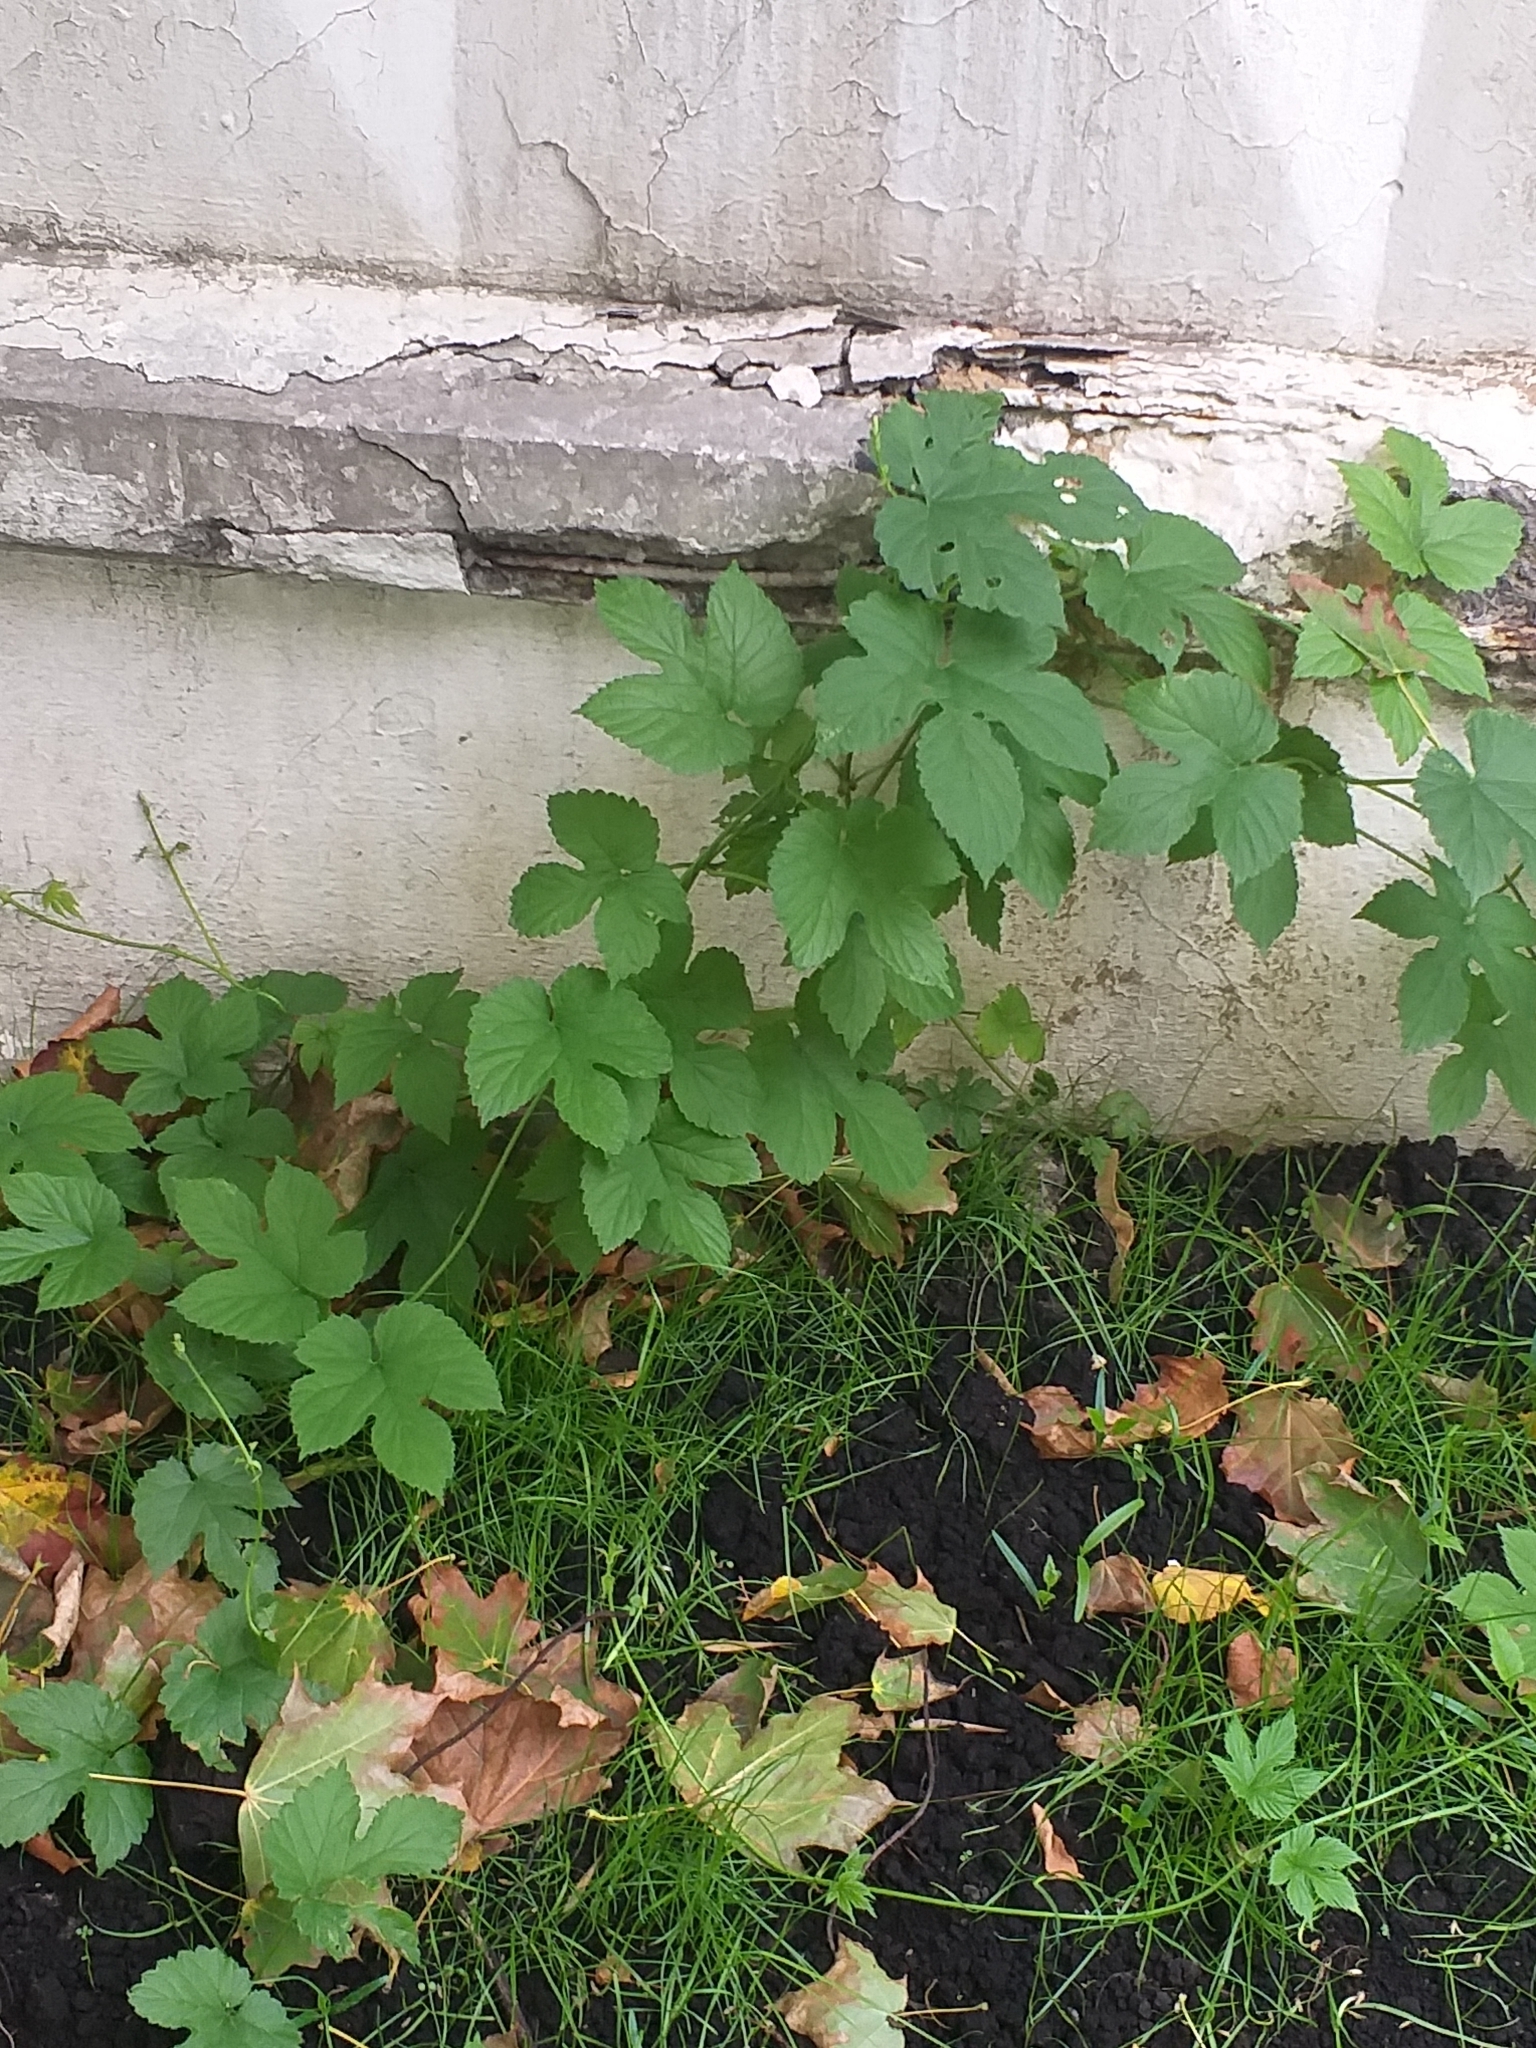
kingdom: Plantae
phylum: Tracheophyta
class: Magnoliopsida
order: Rosales
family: Cannabaceae
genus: Humulus
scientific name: Humulus lupulus
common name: Hop
